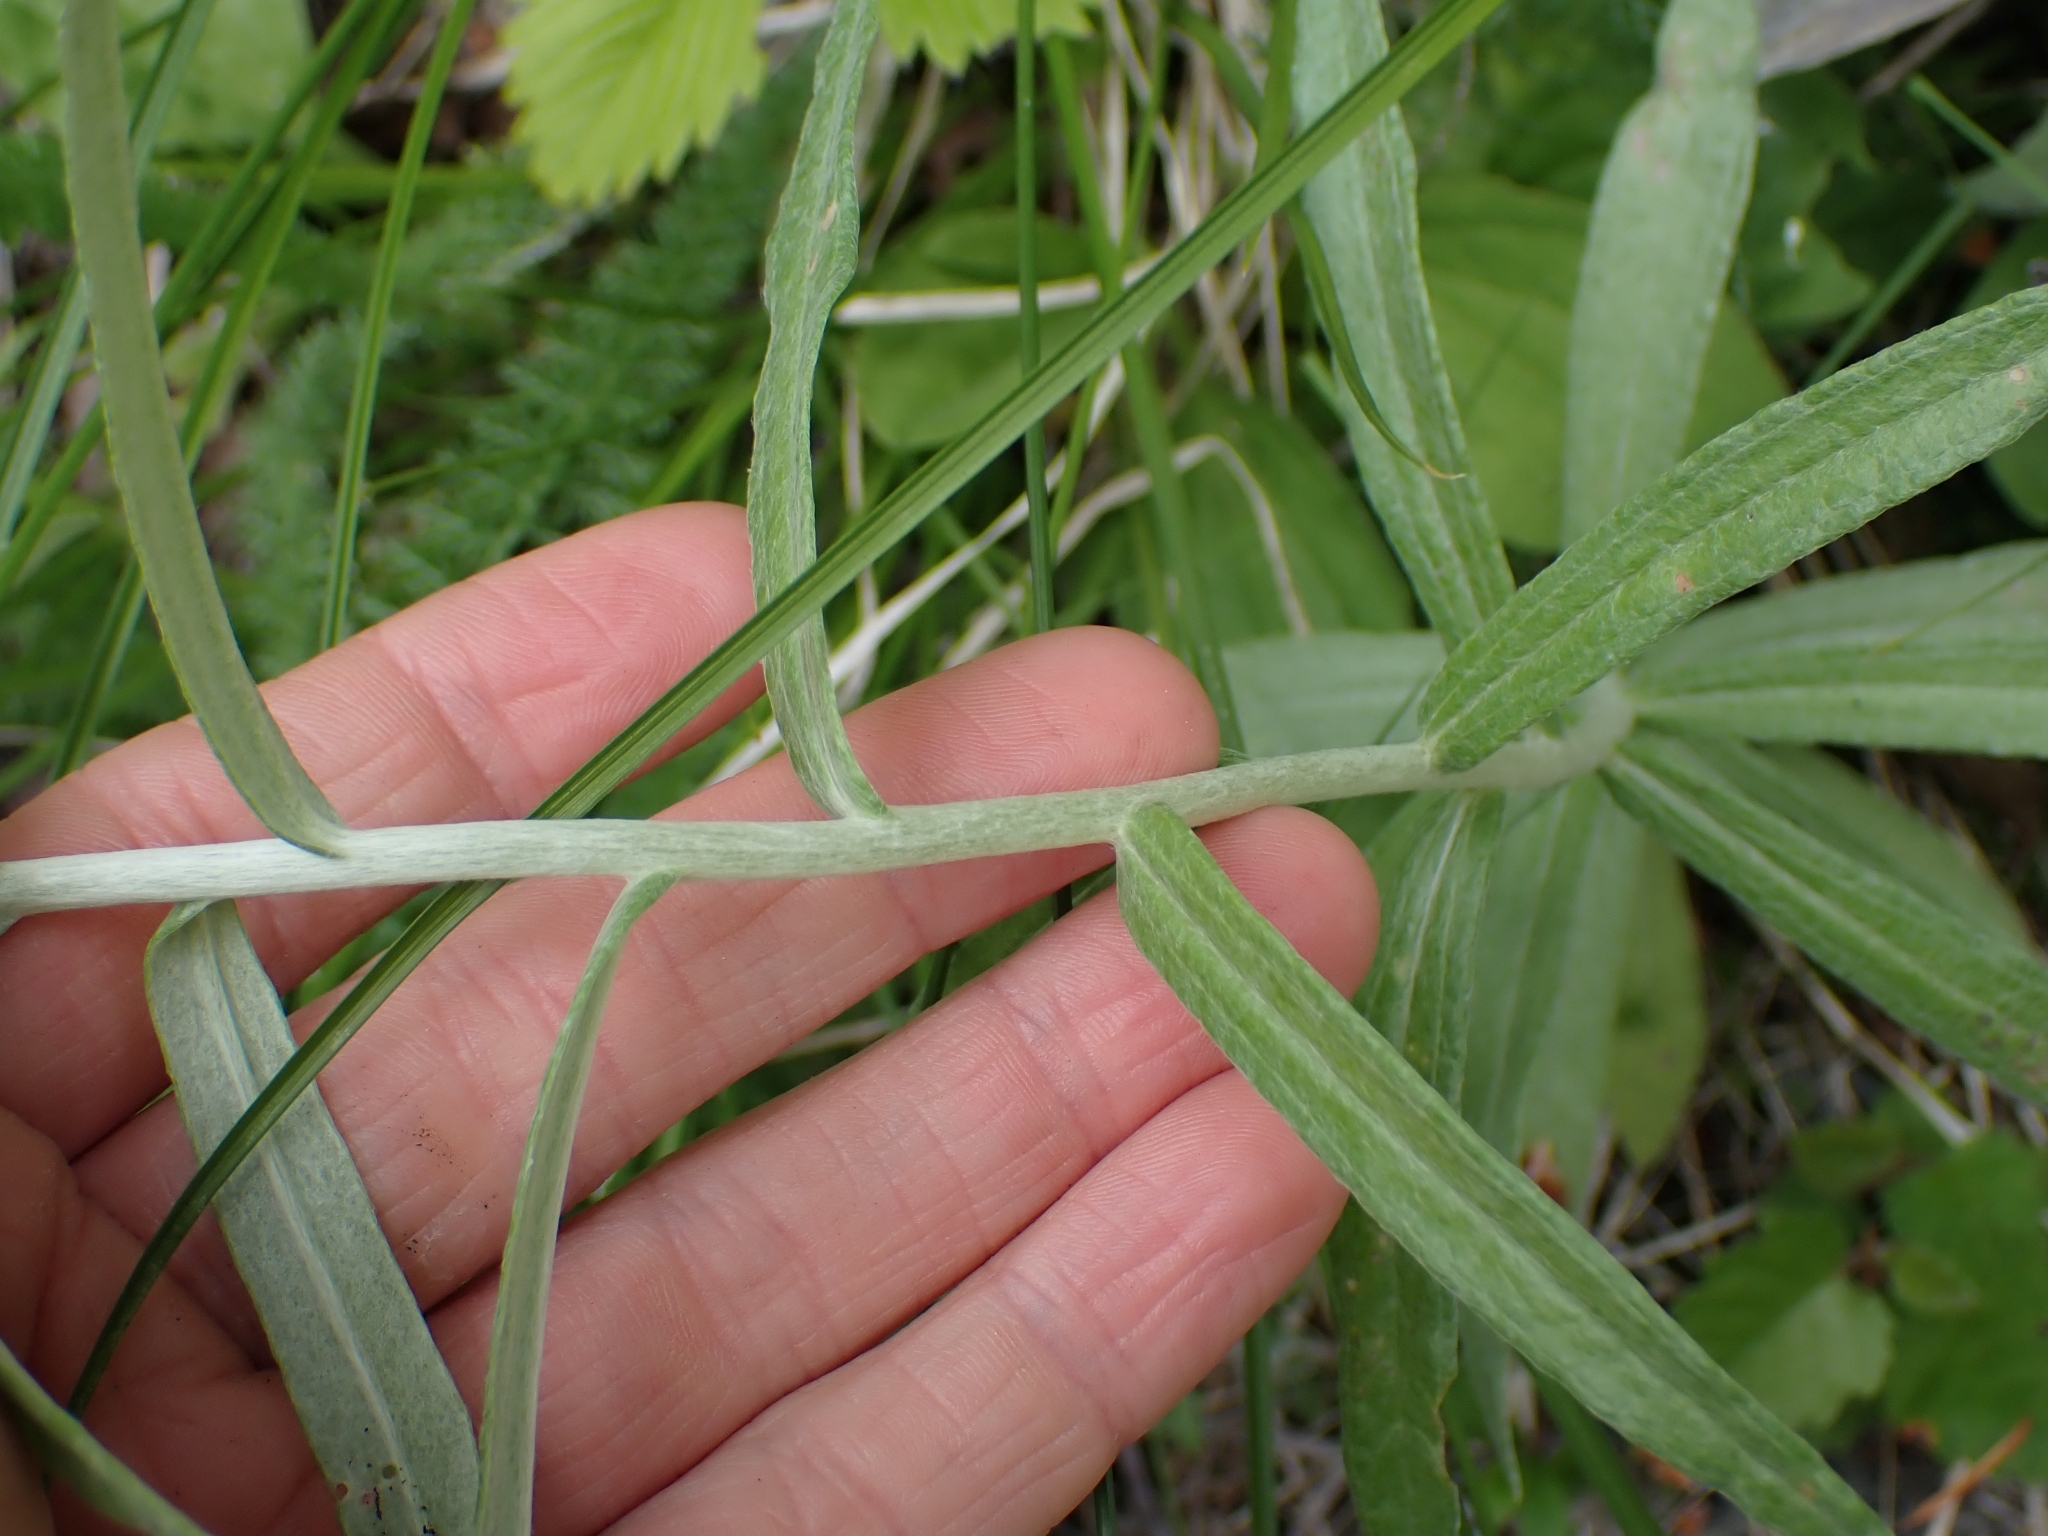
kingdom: Plantae
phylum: Tracheophyta
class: Magnoliopsida
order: Asterales
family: Asteraceae
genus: Anaphalis
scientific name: Anaphalis margaritacea
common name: Pearly everlasting
